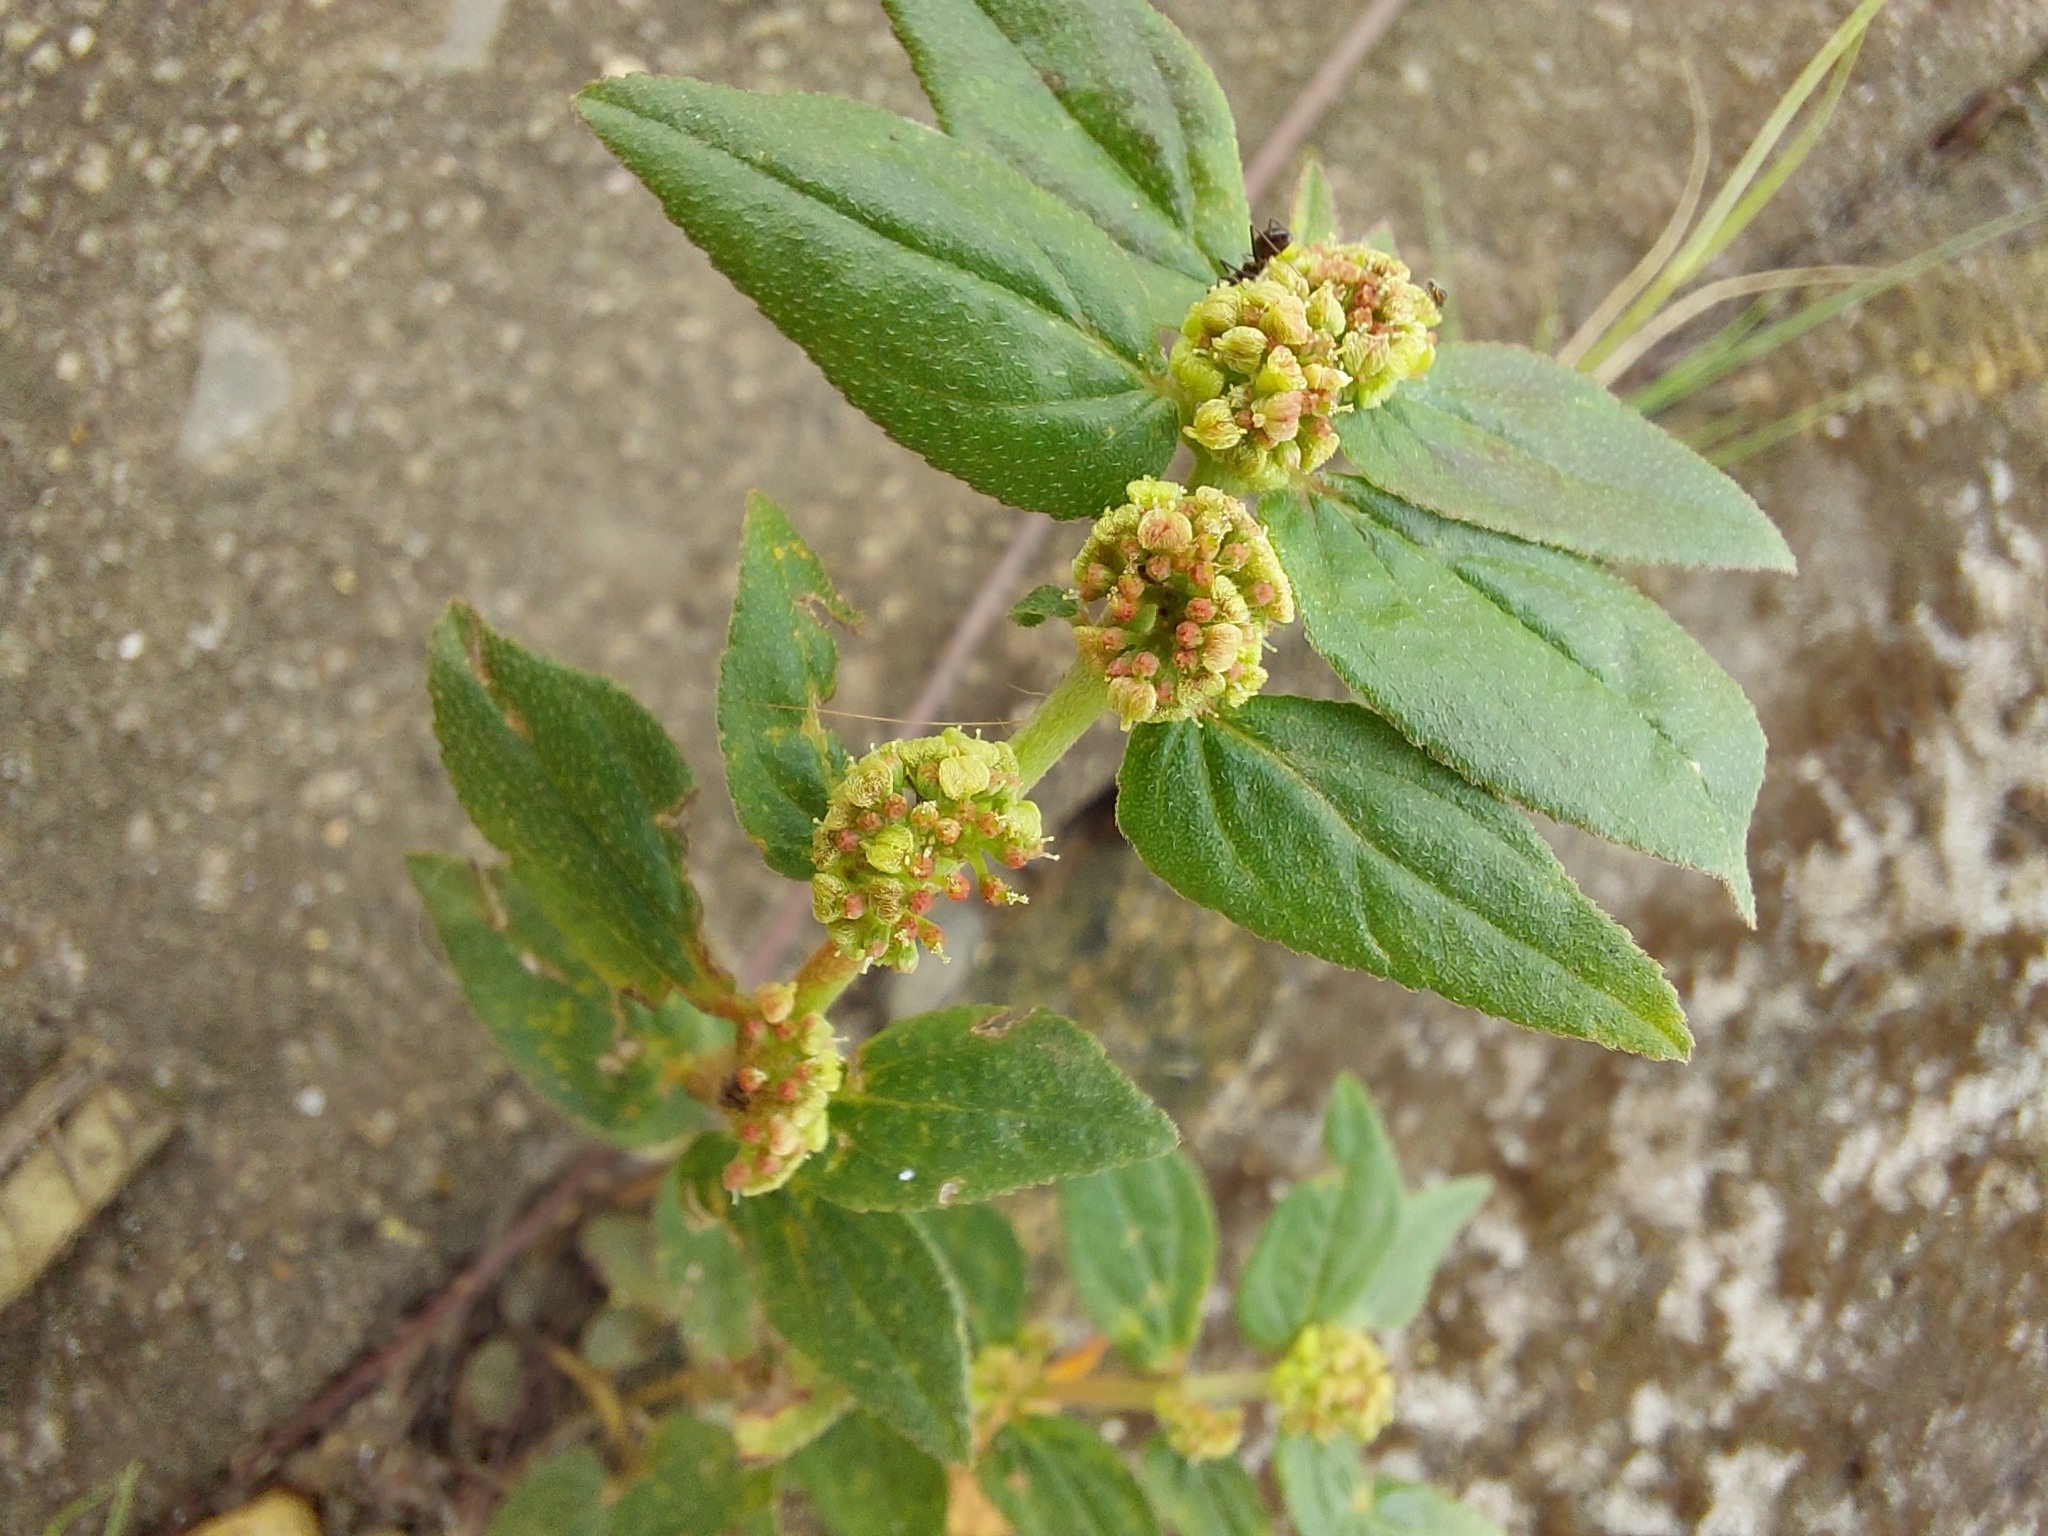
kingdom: Plantae
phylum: Tracheophyta
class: Magnoliopsida
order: Malpighiales
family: Euphorbiaceae
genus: Euphorbia
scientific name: Euphorbia hirta
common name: Pillpod sandmat
